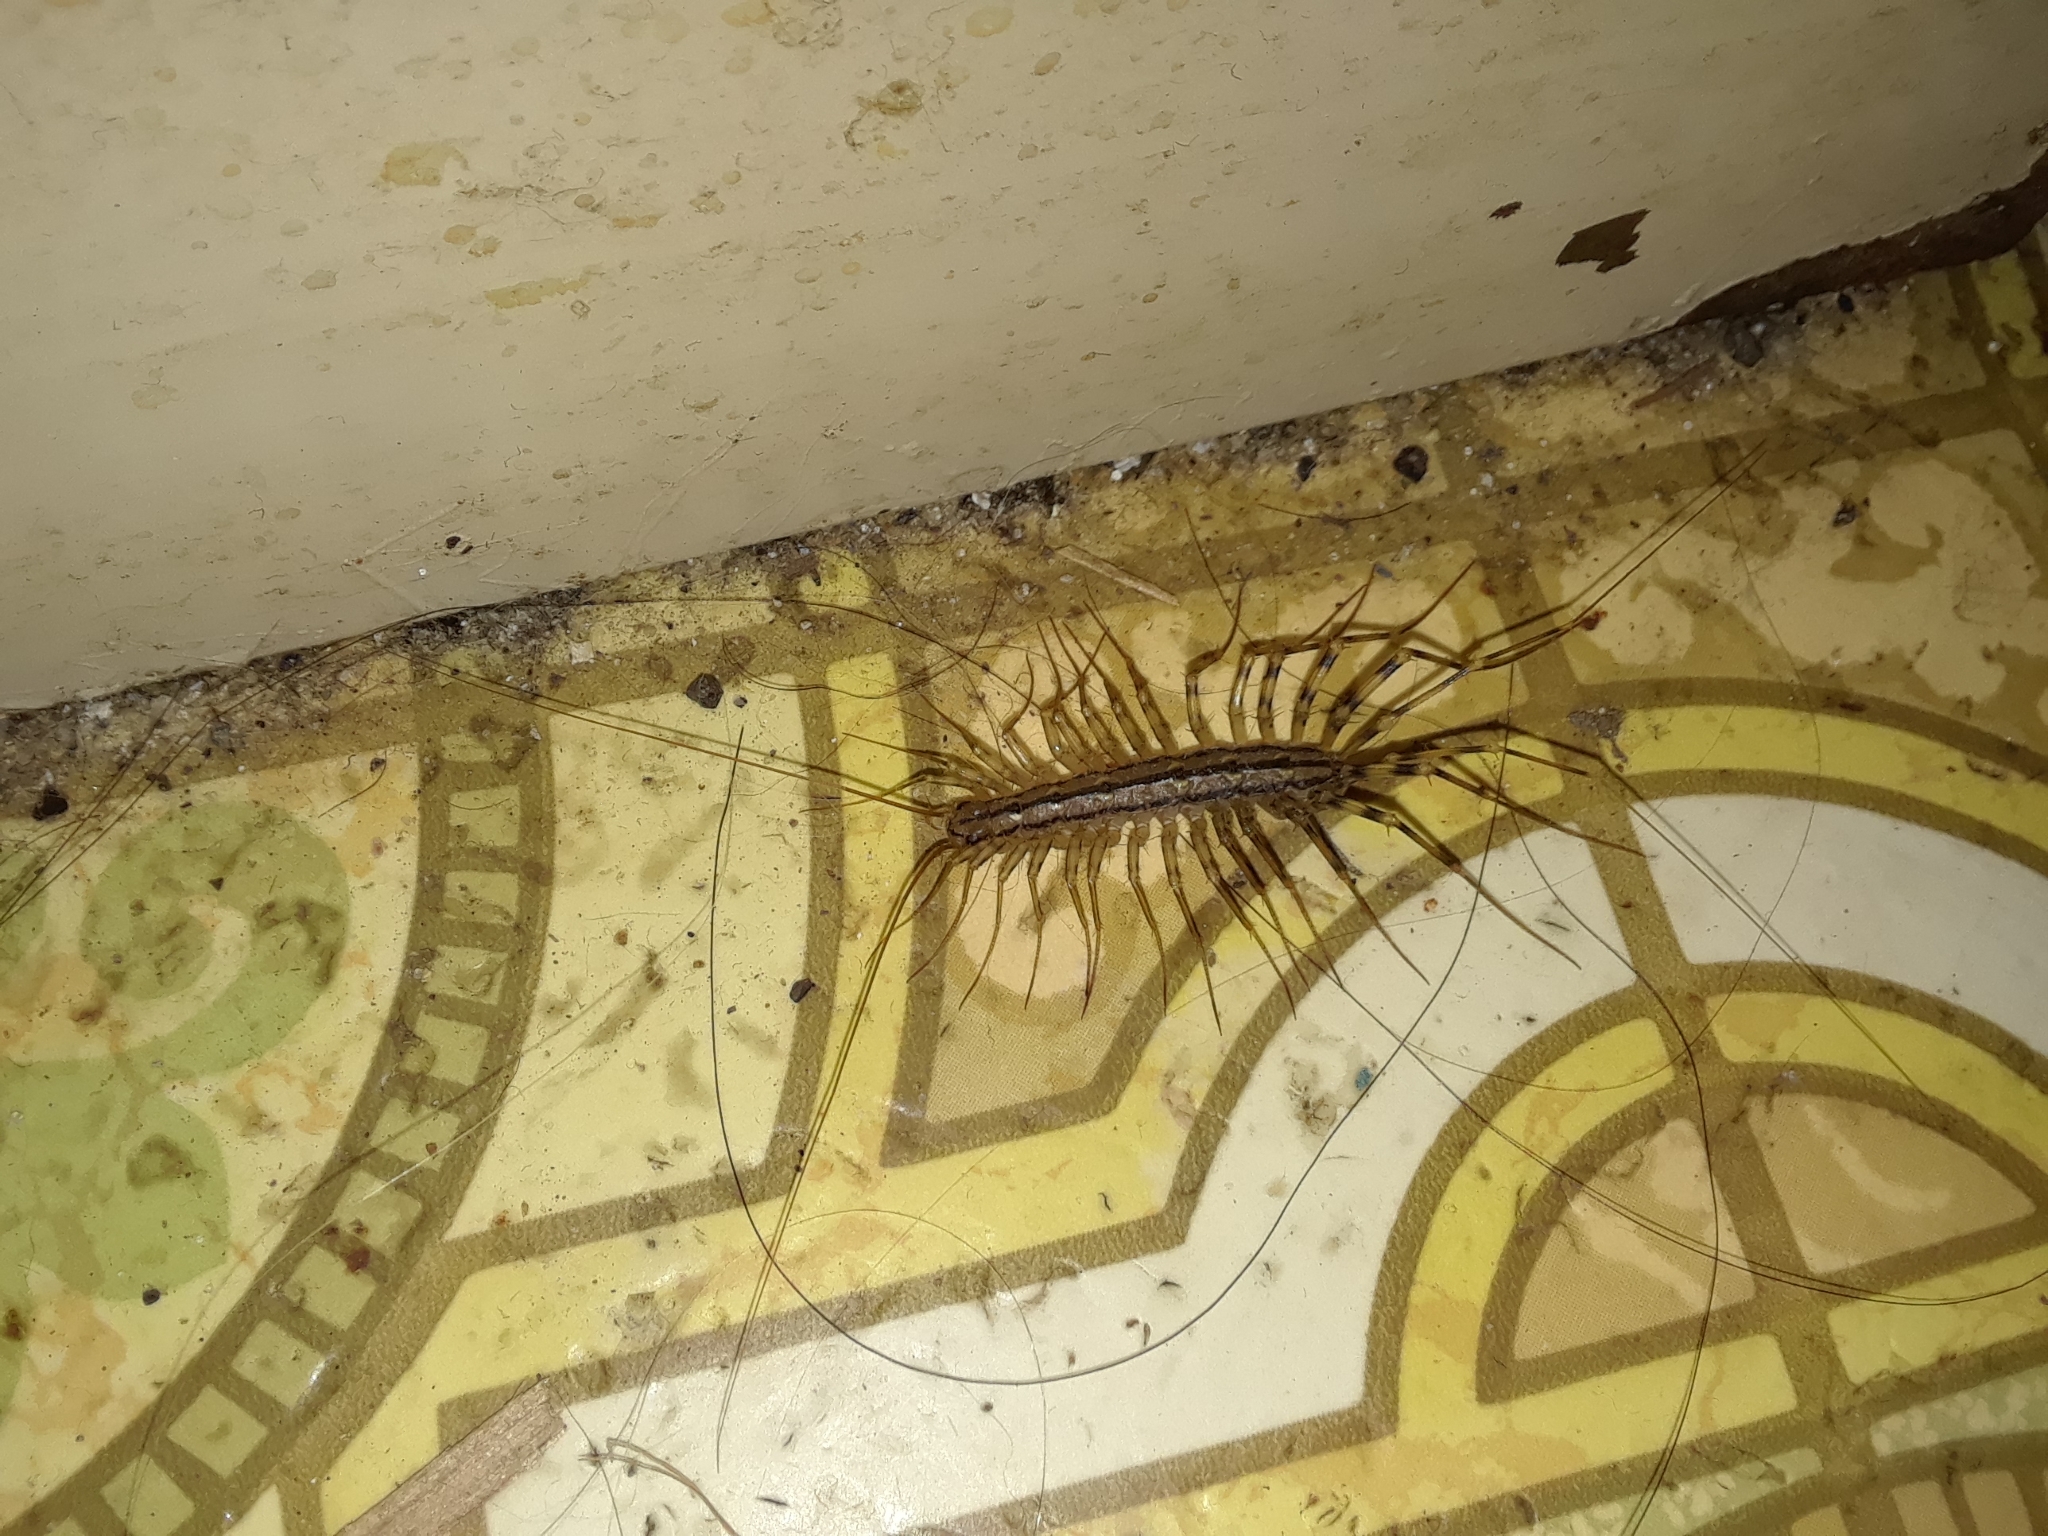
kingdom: Animalia
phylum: Arthropoda
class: Chilopoda
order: Scutigeromorpha
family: Scutigeridae
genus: Scutigera
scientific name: Scutigera coleoptrata
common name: House centipede
